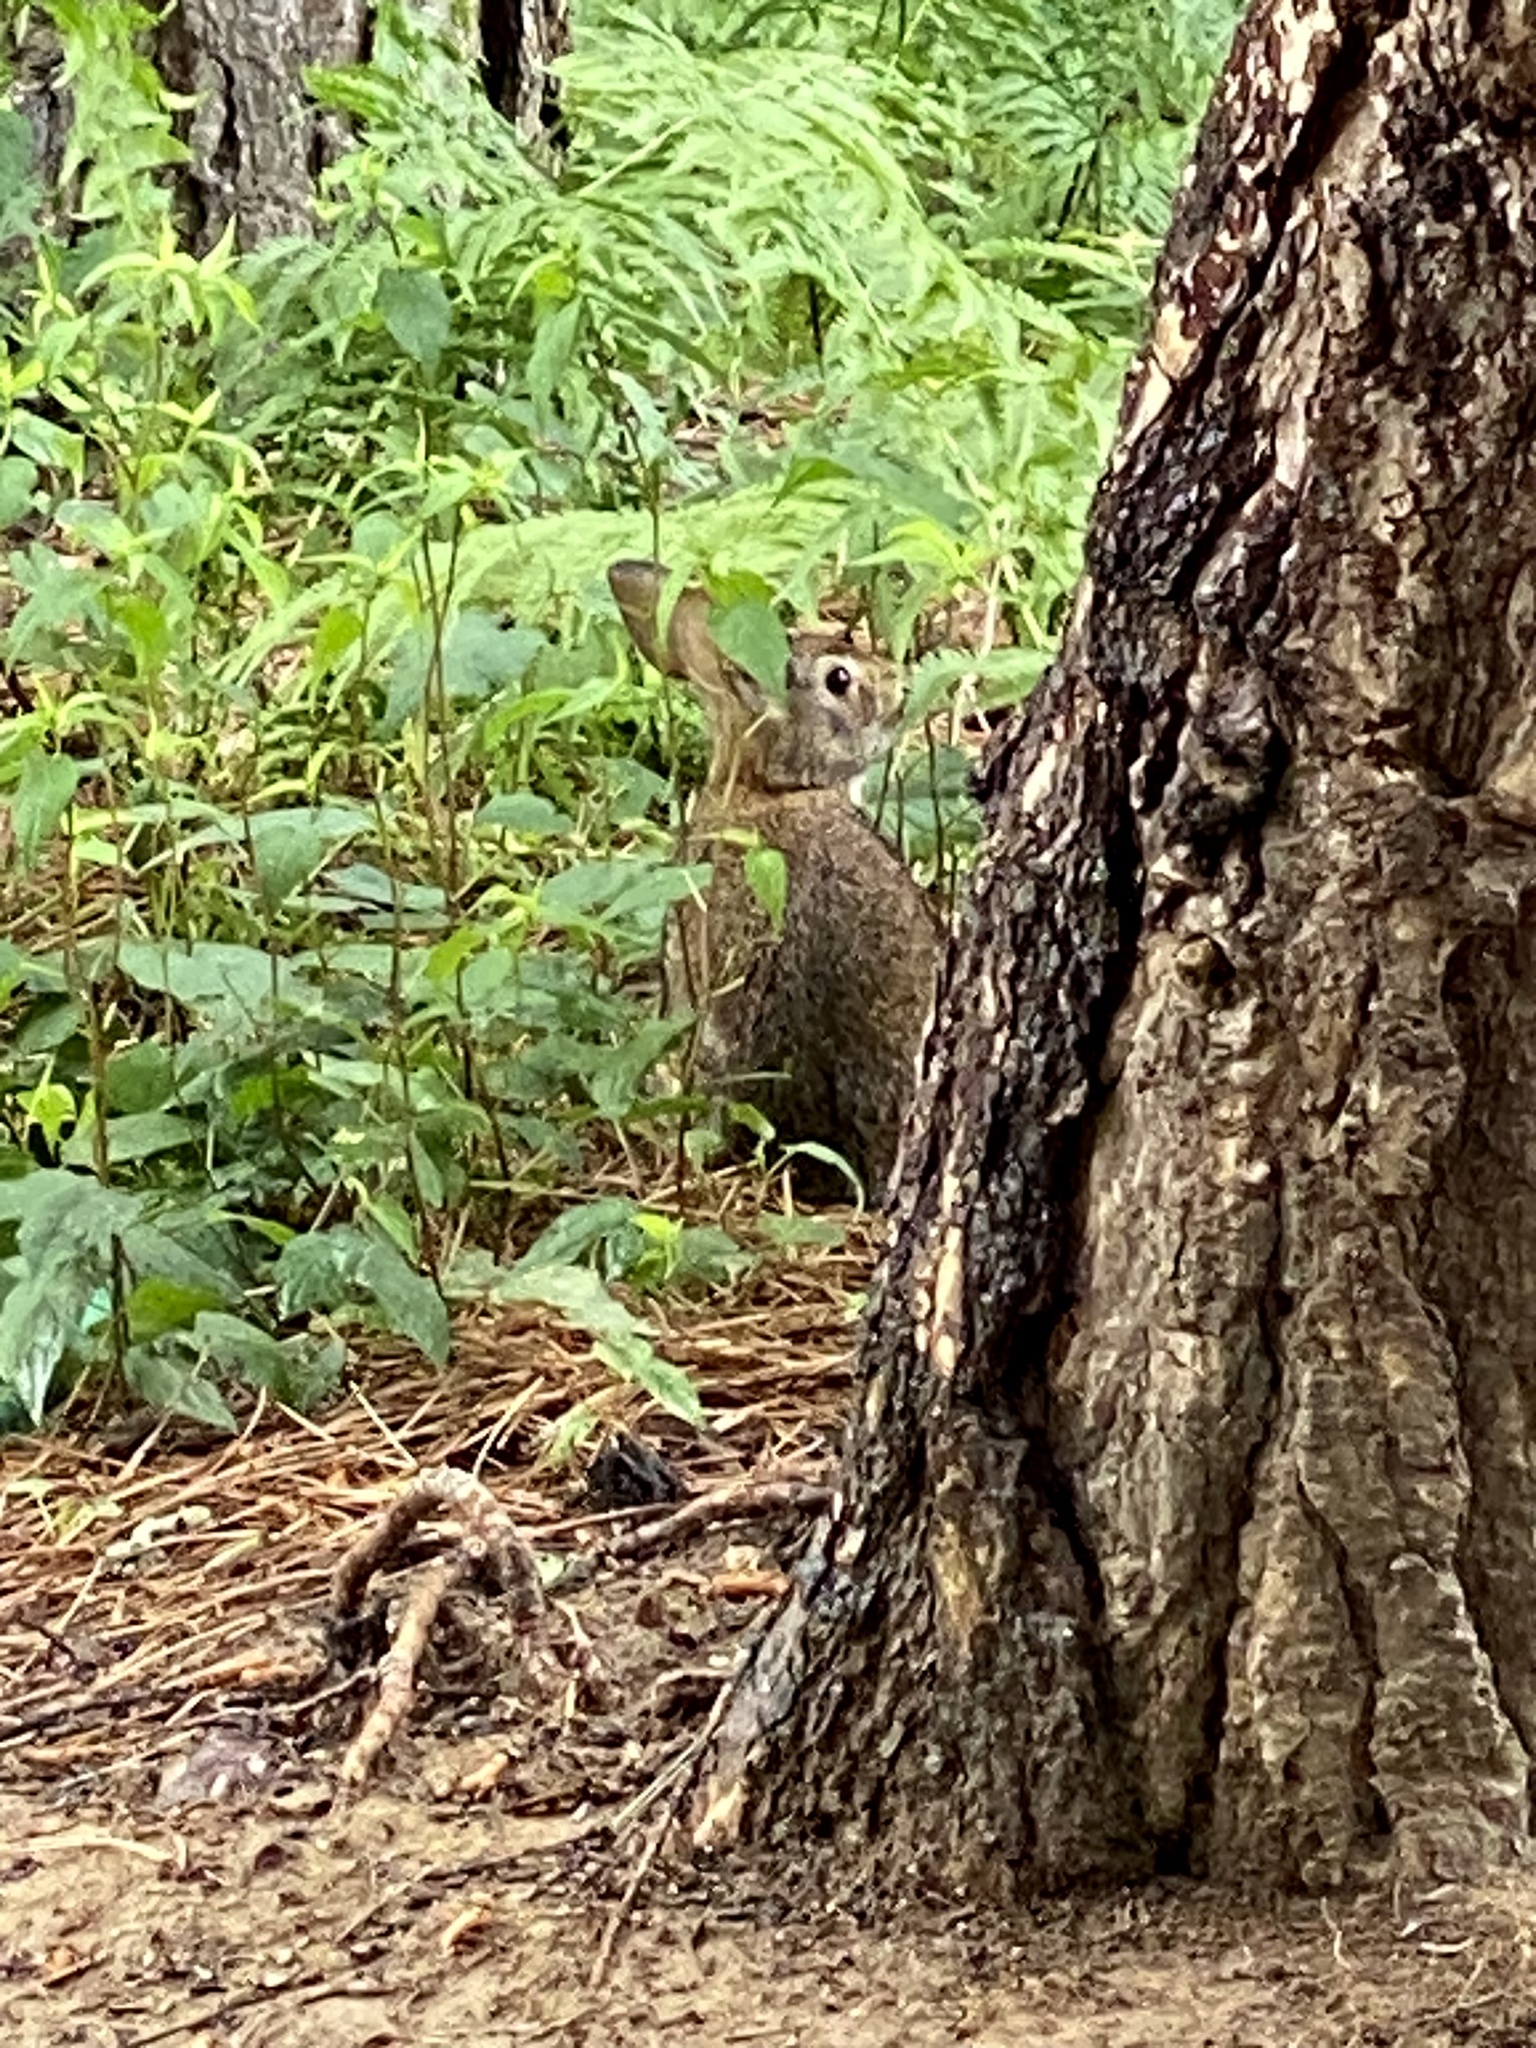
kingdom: Animalia
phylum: Chordata
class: Mammalia
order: Lagomorpha
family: Leporidae
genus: Sylvilagus
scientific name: Sylvilagus floridanus
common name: Eastern cottontail
